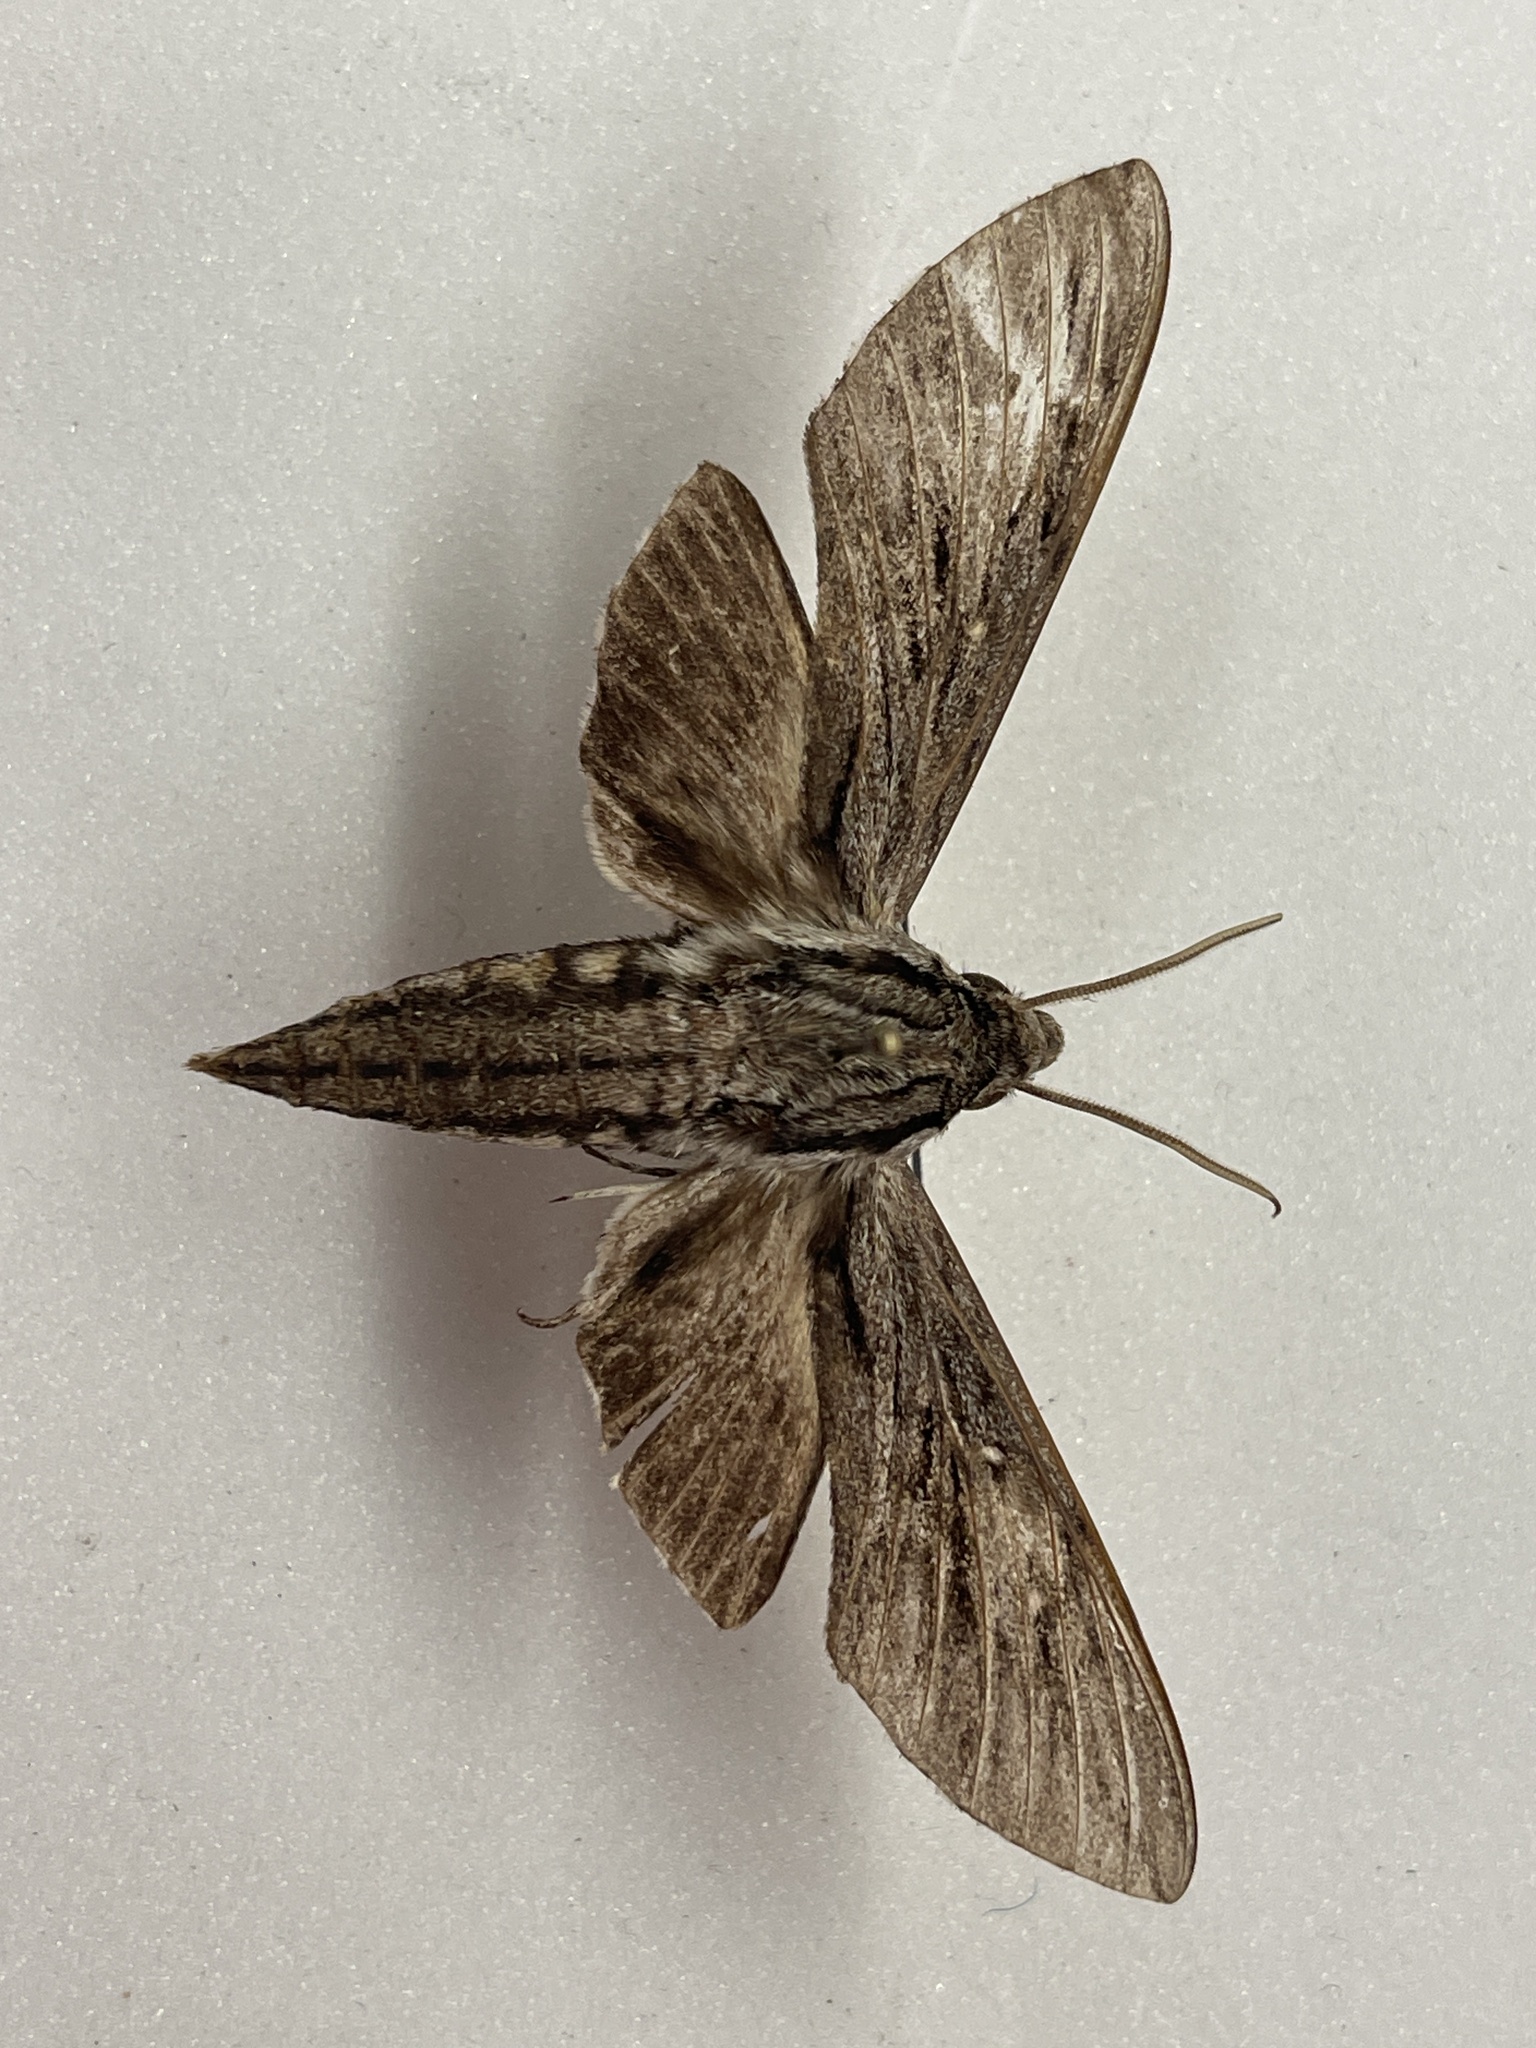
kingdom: Animalia
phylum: Arthropoda
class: Insecta
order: Lepidoptera
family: Sphingidae
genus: Paratrea
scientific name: Paratrea plebeja
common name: Plebian sphinx
